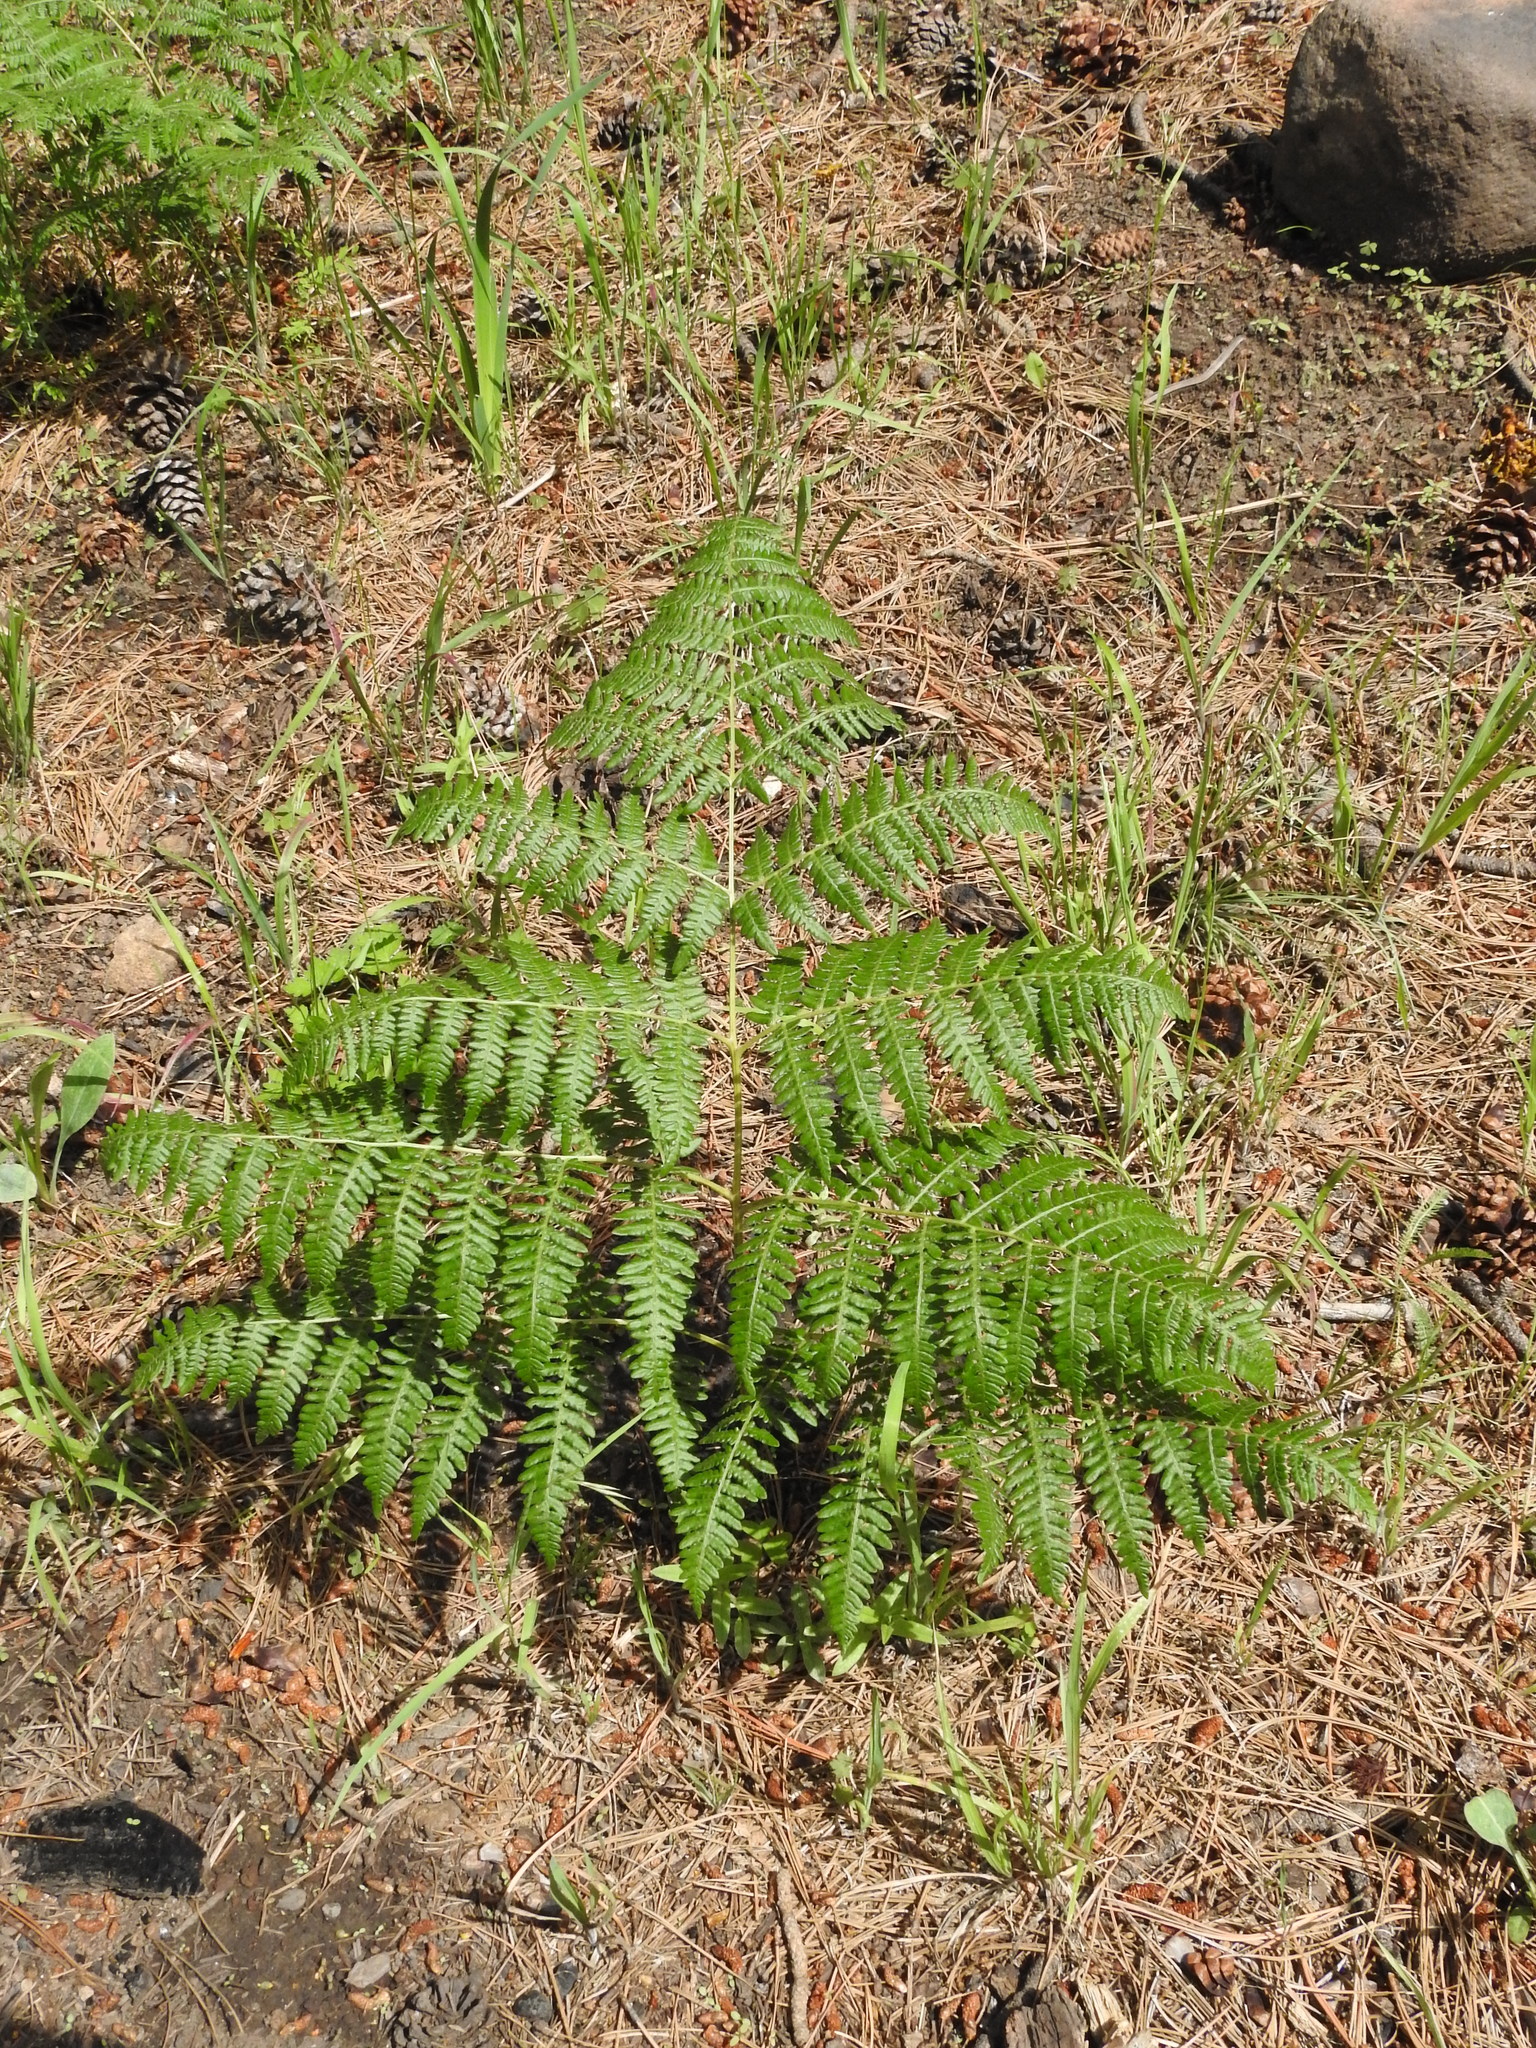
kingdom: Plantae
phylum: Tracheophyta
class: Polypodiopsida
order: Polypodiales
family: Dennstaedtiaceae
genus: Pteridium
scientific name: Pteridium aquilinum
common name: Bracken
